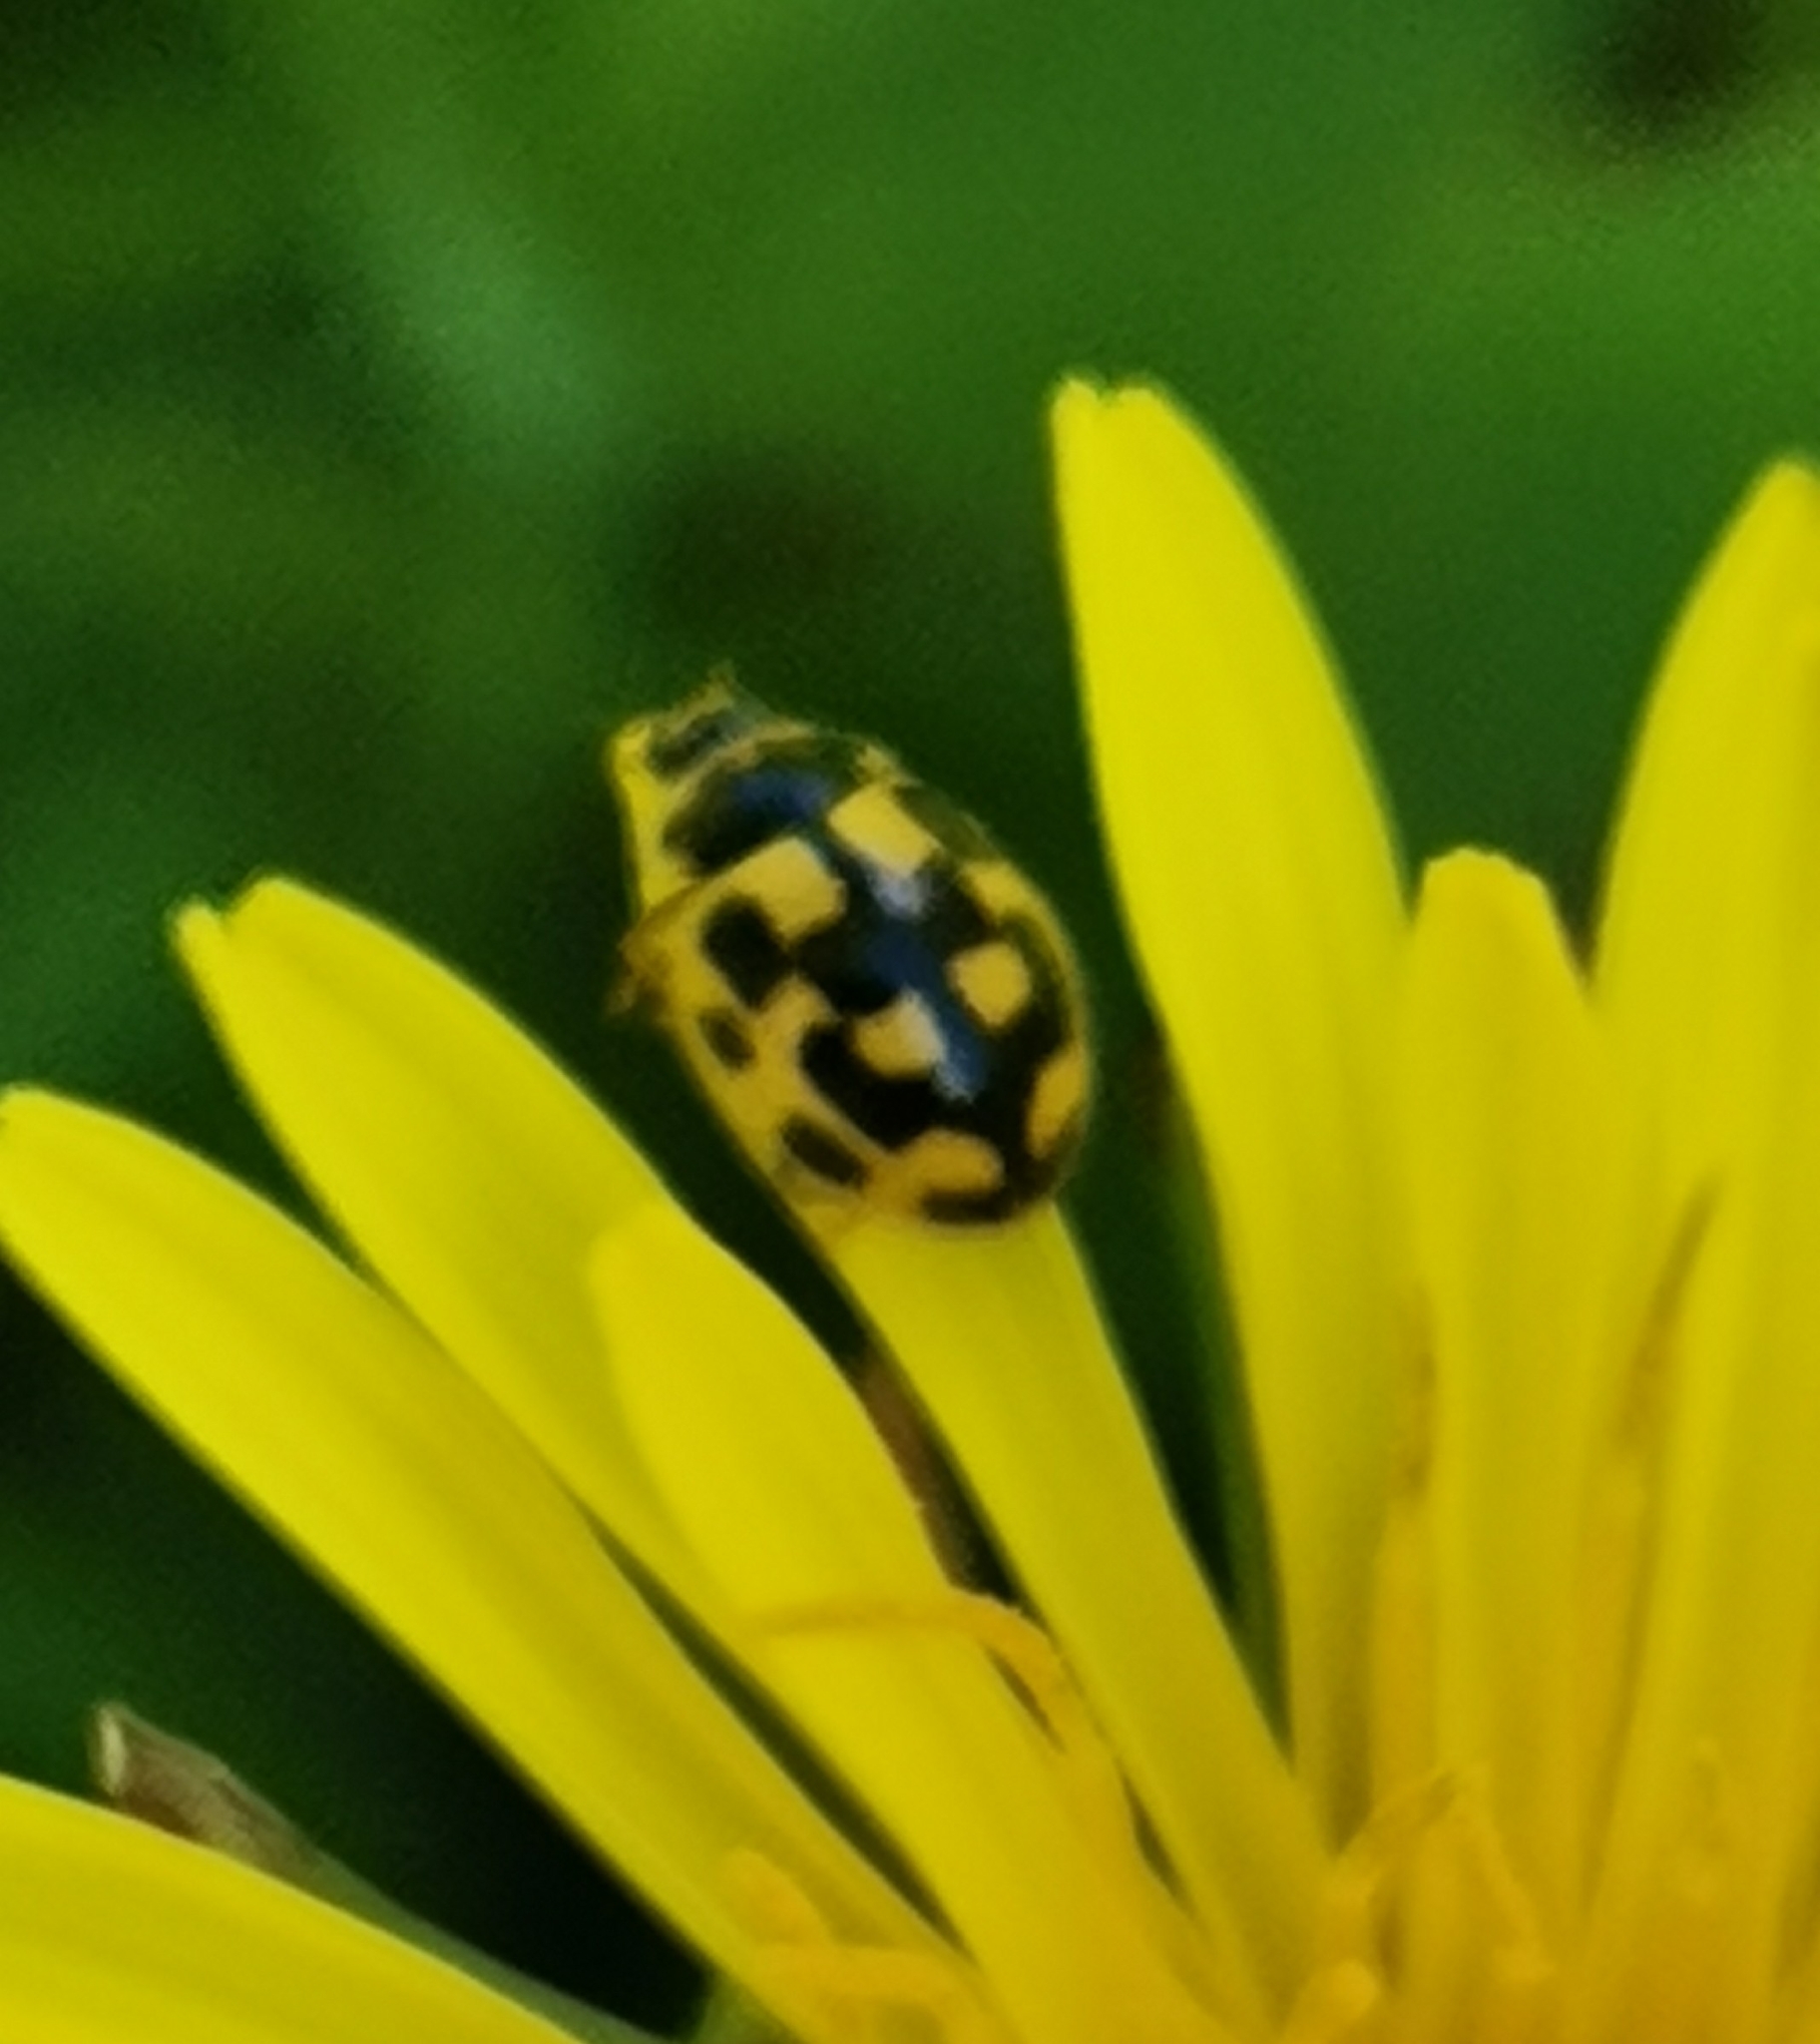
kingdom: Animalia
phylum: Arthropoda
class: Insecta
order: Coleoptera
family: Coccinellidae
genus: Propylaea
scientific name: Propylaea quatuordecimpunctata
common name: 14-spotted ladybird beetle
